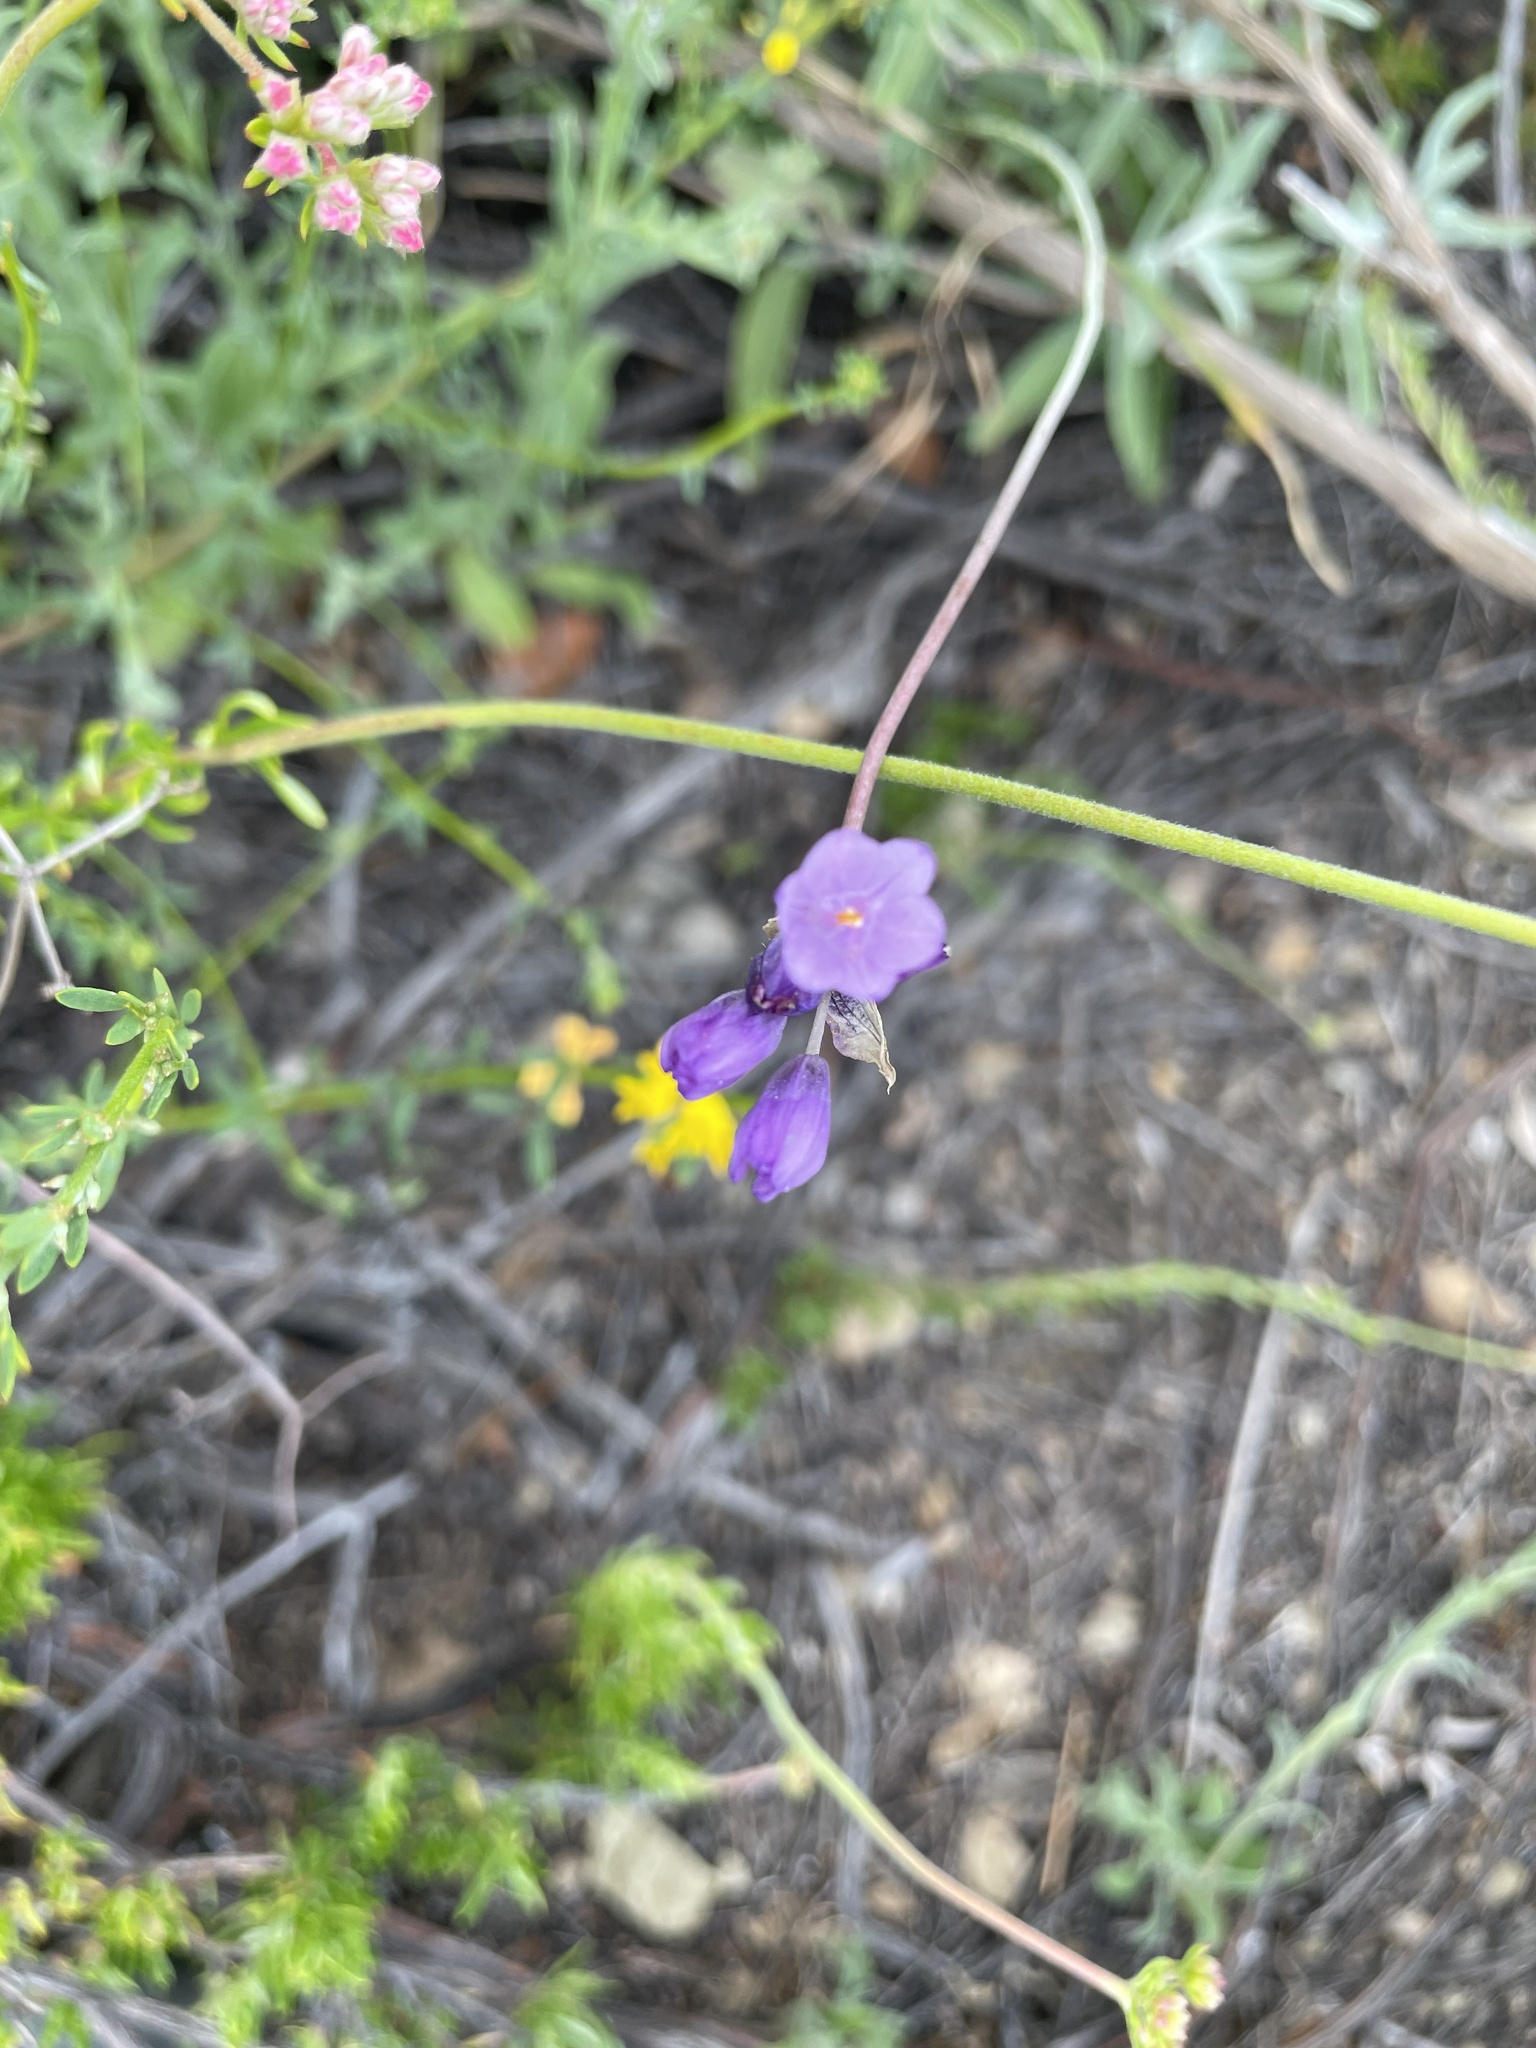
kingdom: Plantae
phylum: Tracheophyta
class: Liliopsida
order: Asparagales
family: Asparagaceae
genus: Dipterostemon
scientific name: Dipterostemon capitatus
